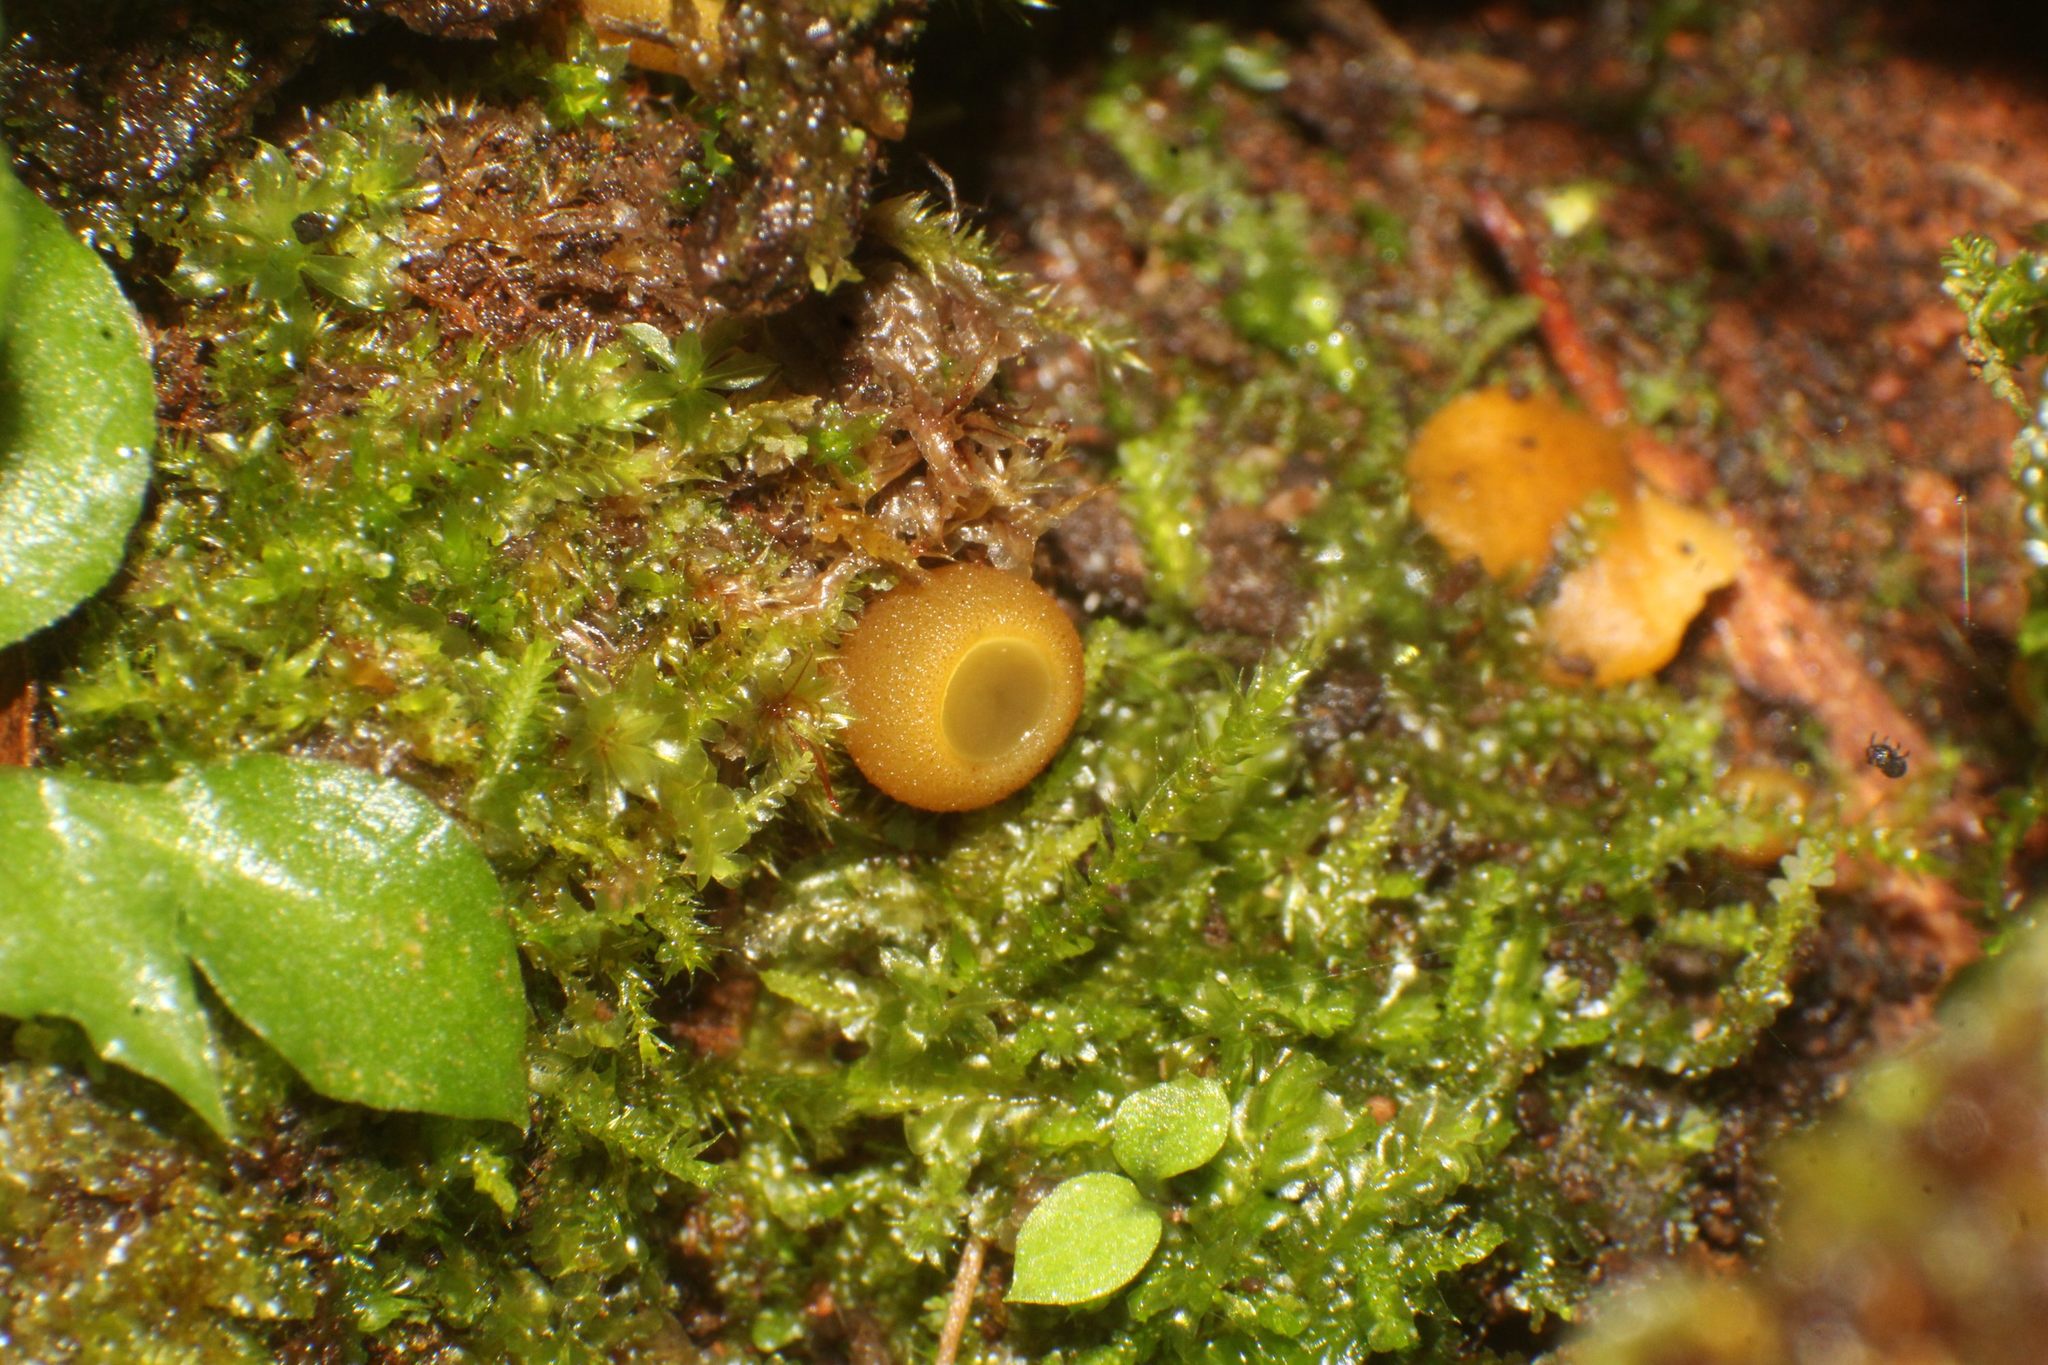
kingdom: Fungi
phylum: Ascomycota
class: Pezizomycetes
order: Pezizales
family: Pyronemataceae
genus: Aleurina
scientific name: Aleurina ferruginea
